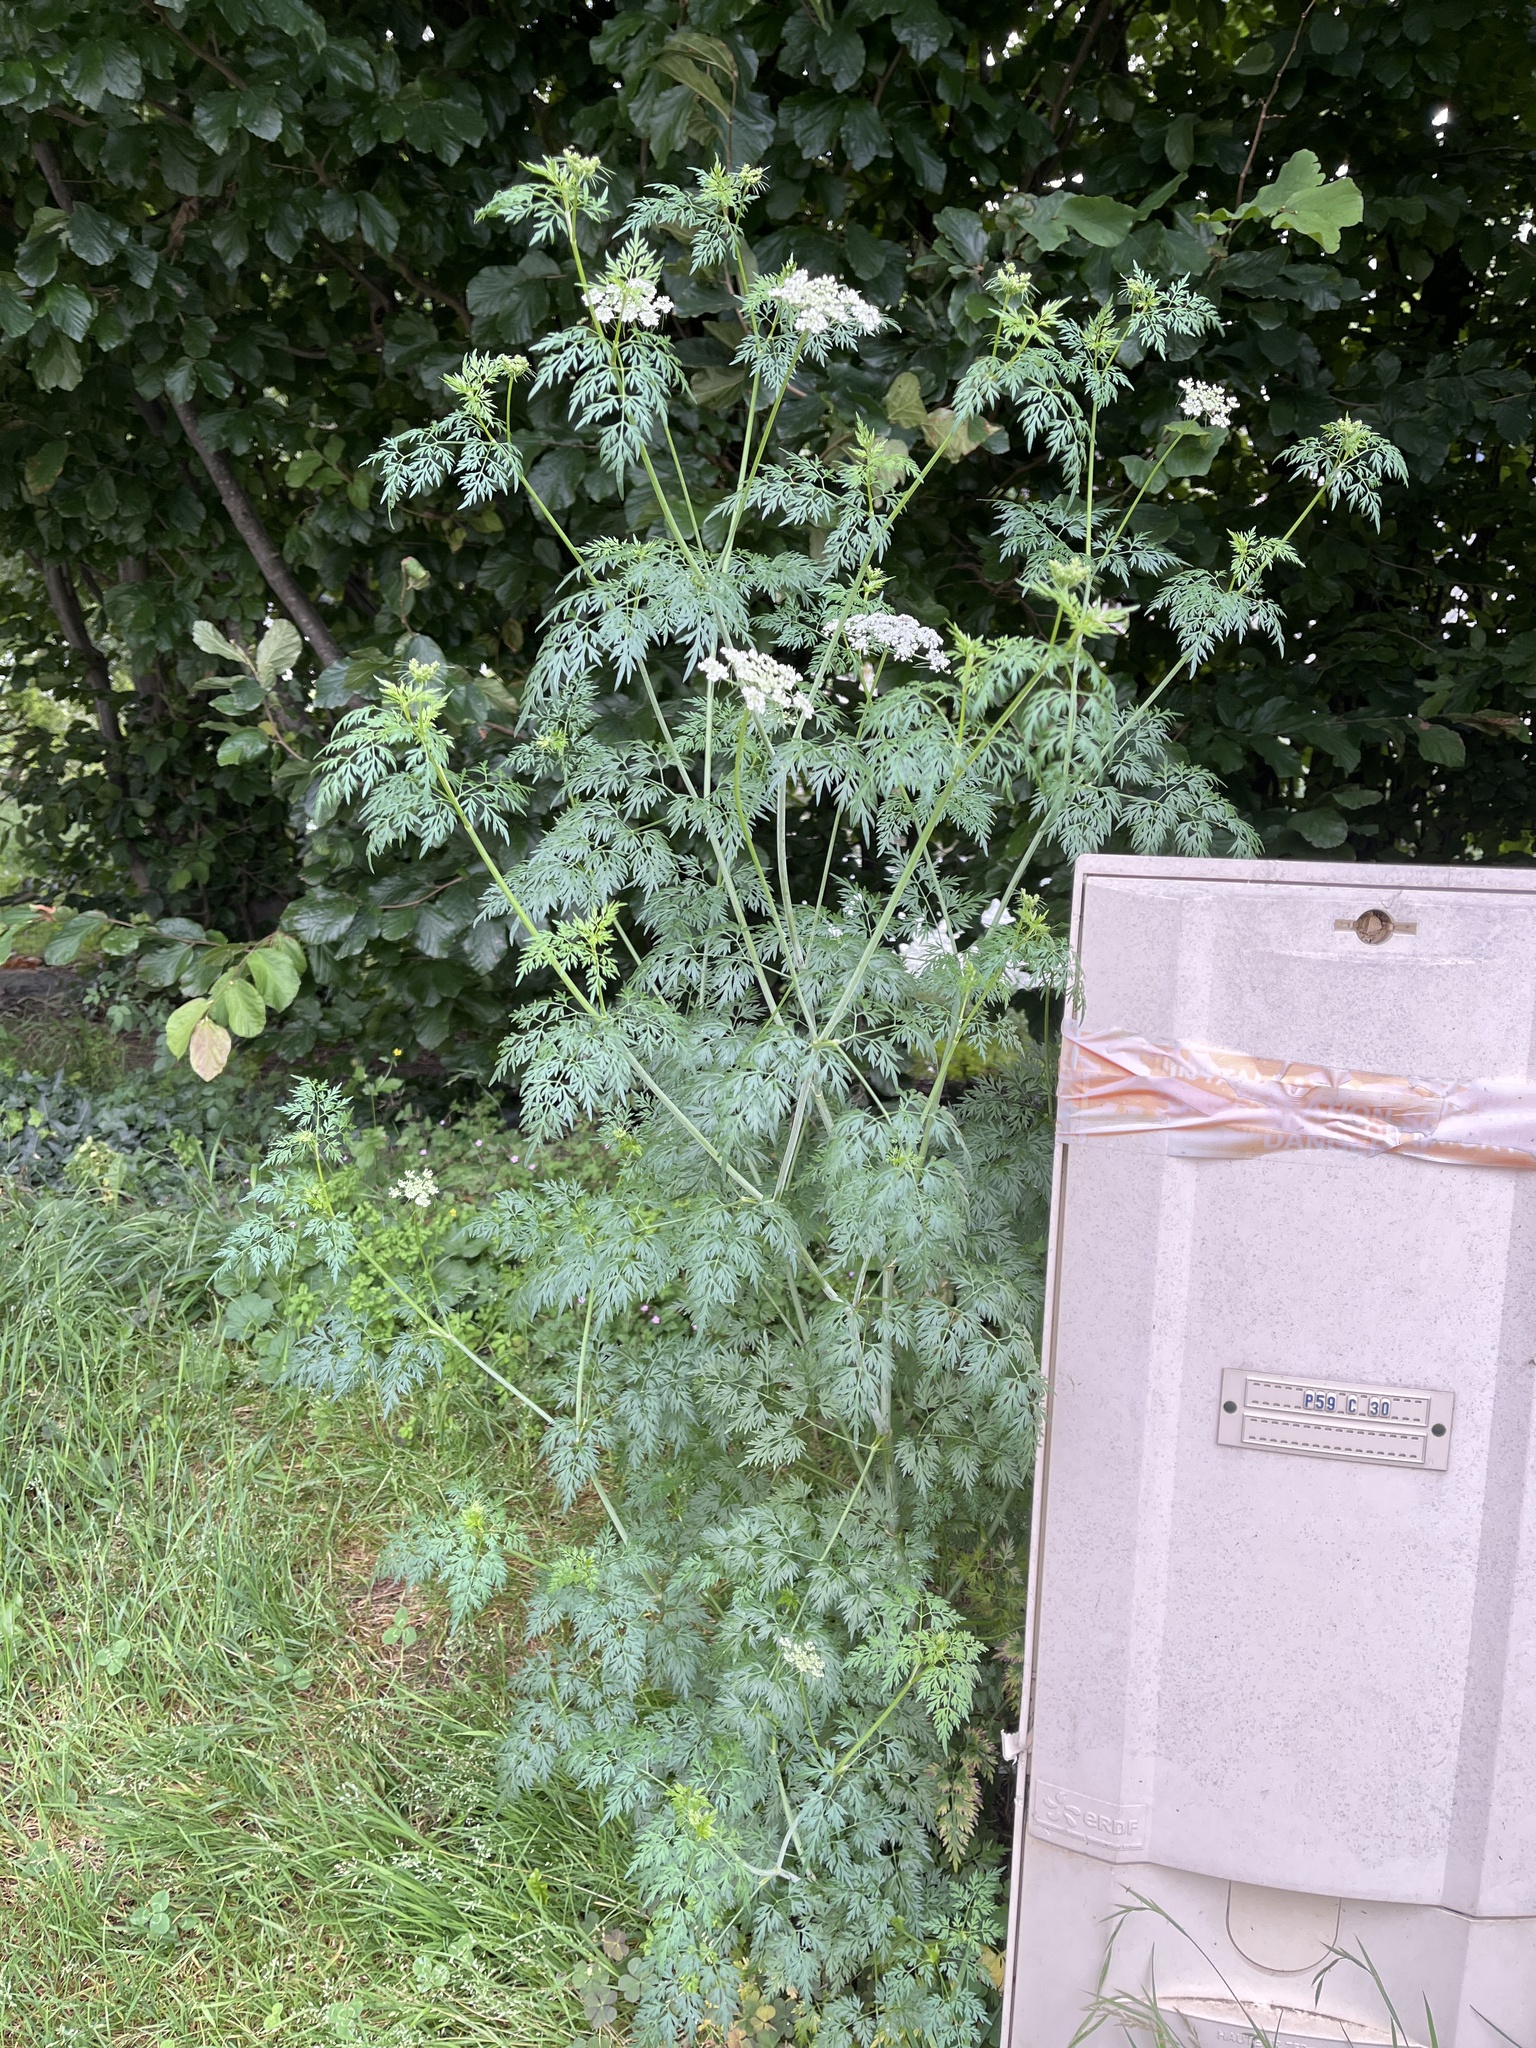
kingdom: Plantae
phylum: Tracheophyta
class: Magnoliopsida
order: Apiales
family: Apiaceae
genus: Aethusa
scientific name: Aethusa cynapium
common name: Fool's parsley
